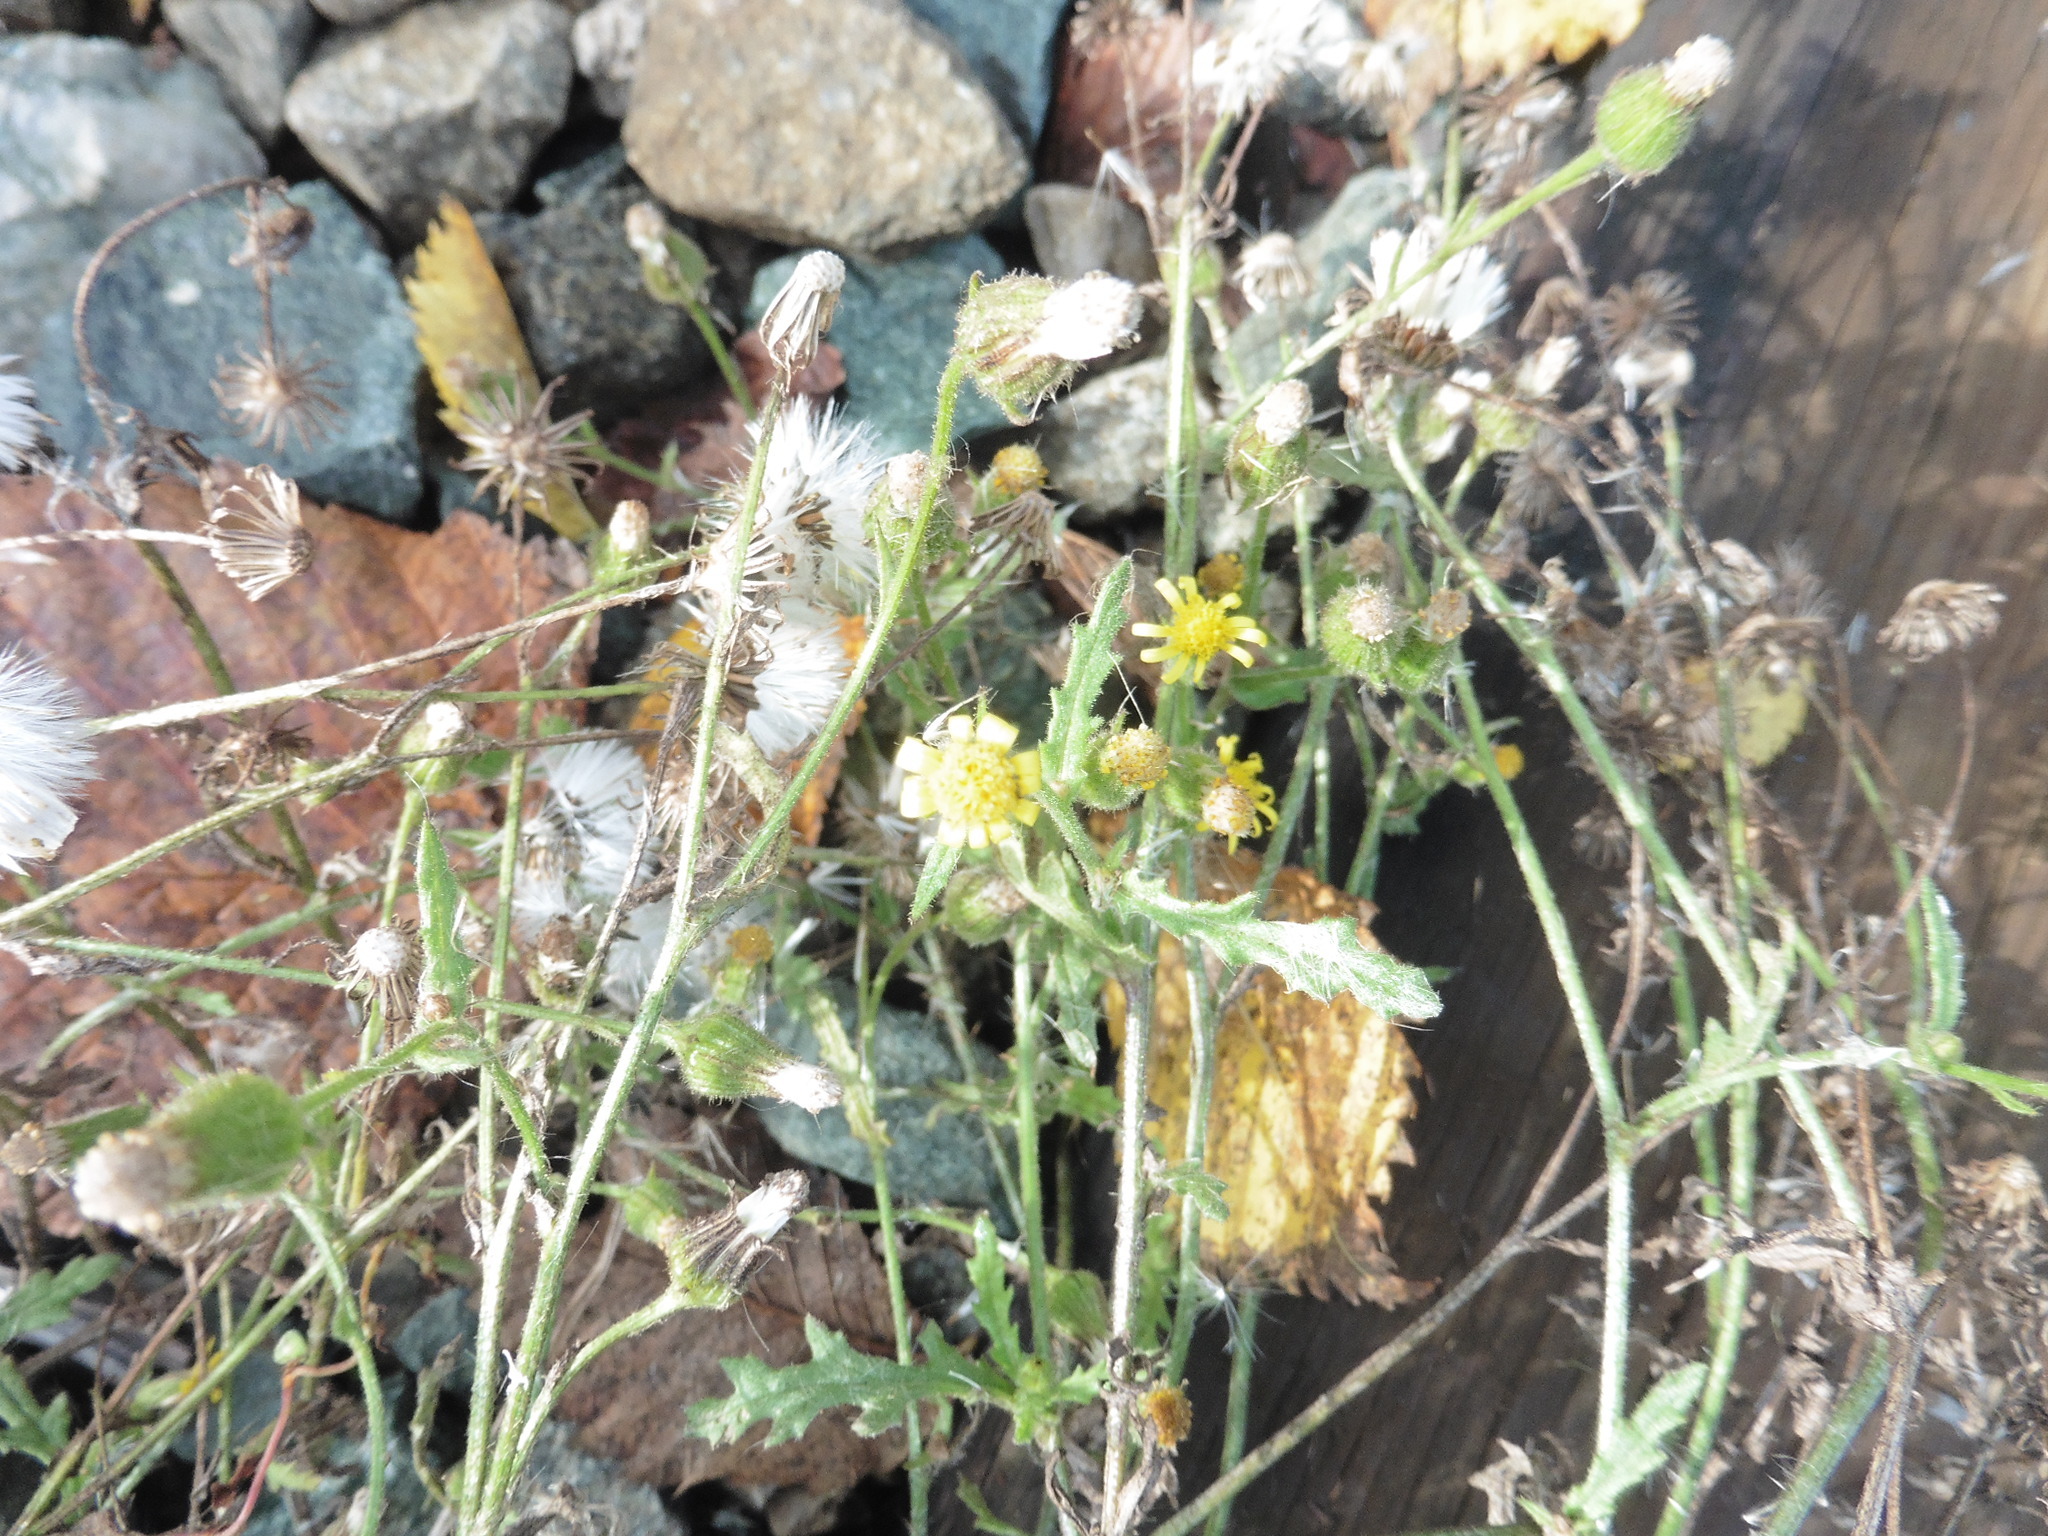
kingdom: Plantae
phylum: Tracheophyta
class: Magnoliopsida
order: Asterales
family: Asteraceae
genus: Senecio
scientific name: Senecio viscosus
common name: Sticky groundsel
